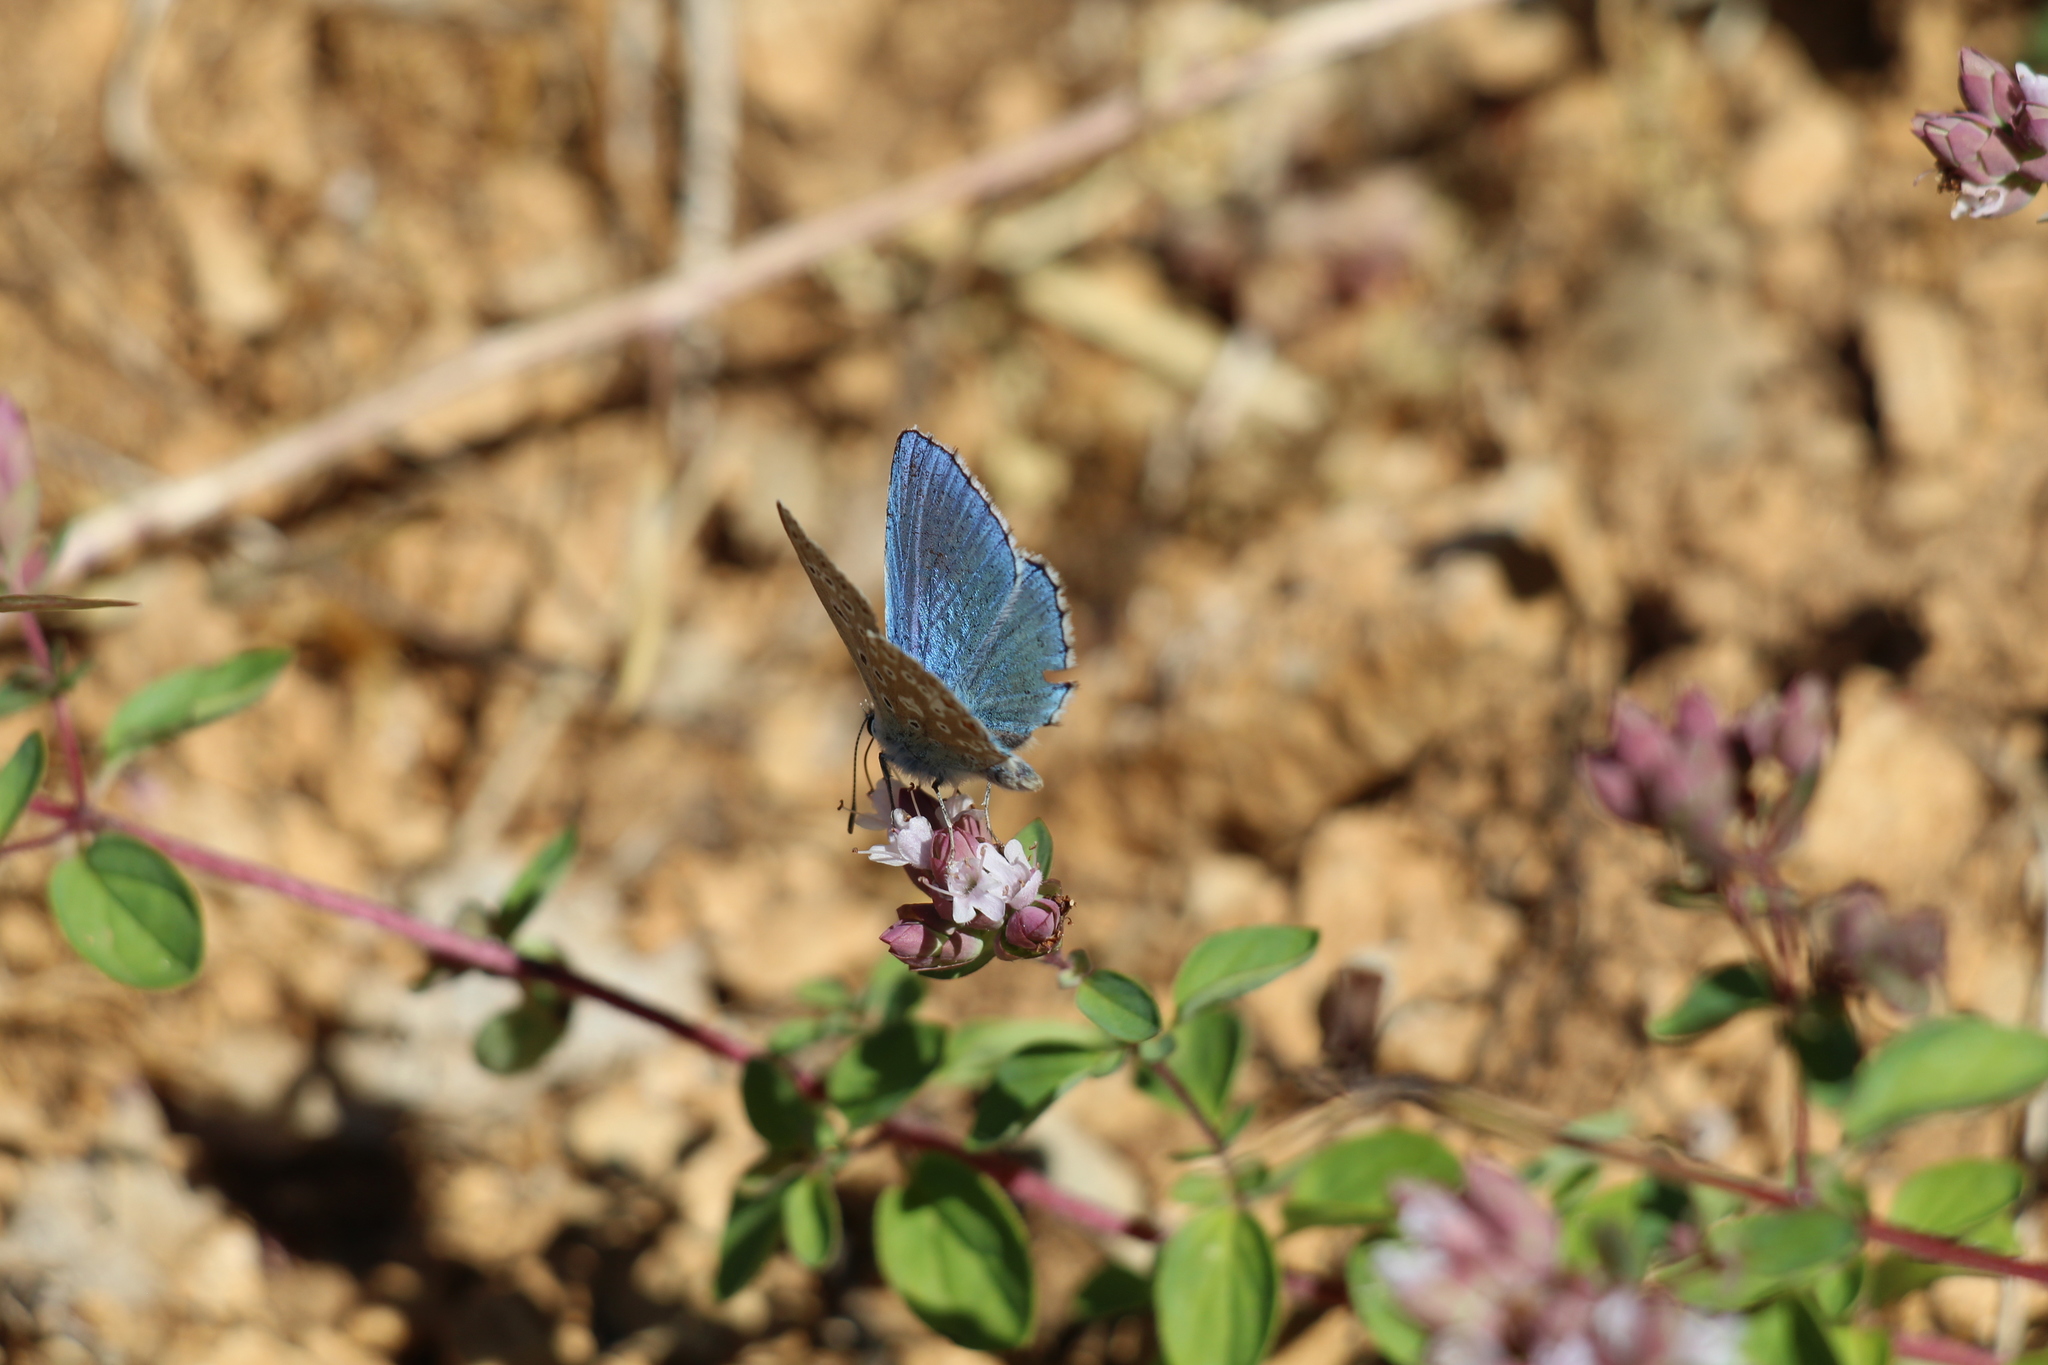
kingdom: Animalia
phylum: Arthropoda
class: Insecta
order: Lepidoptera
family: Lycaenidae
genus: Lysandra
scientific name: Lysandra bellargus
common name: Adonis blue
